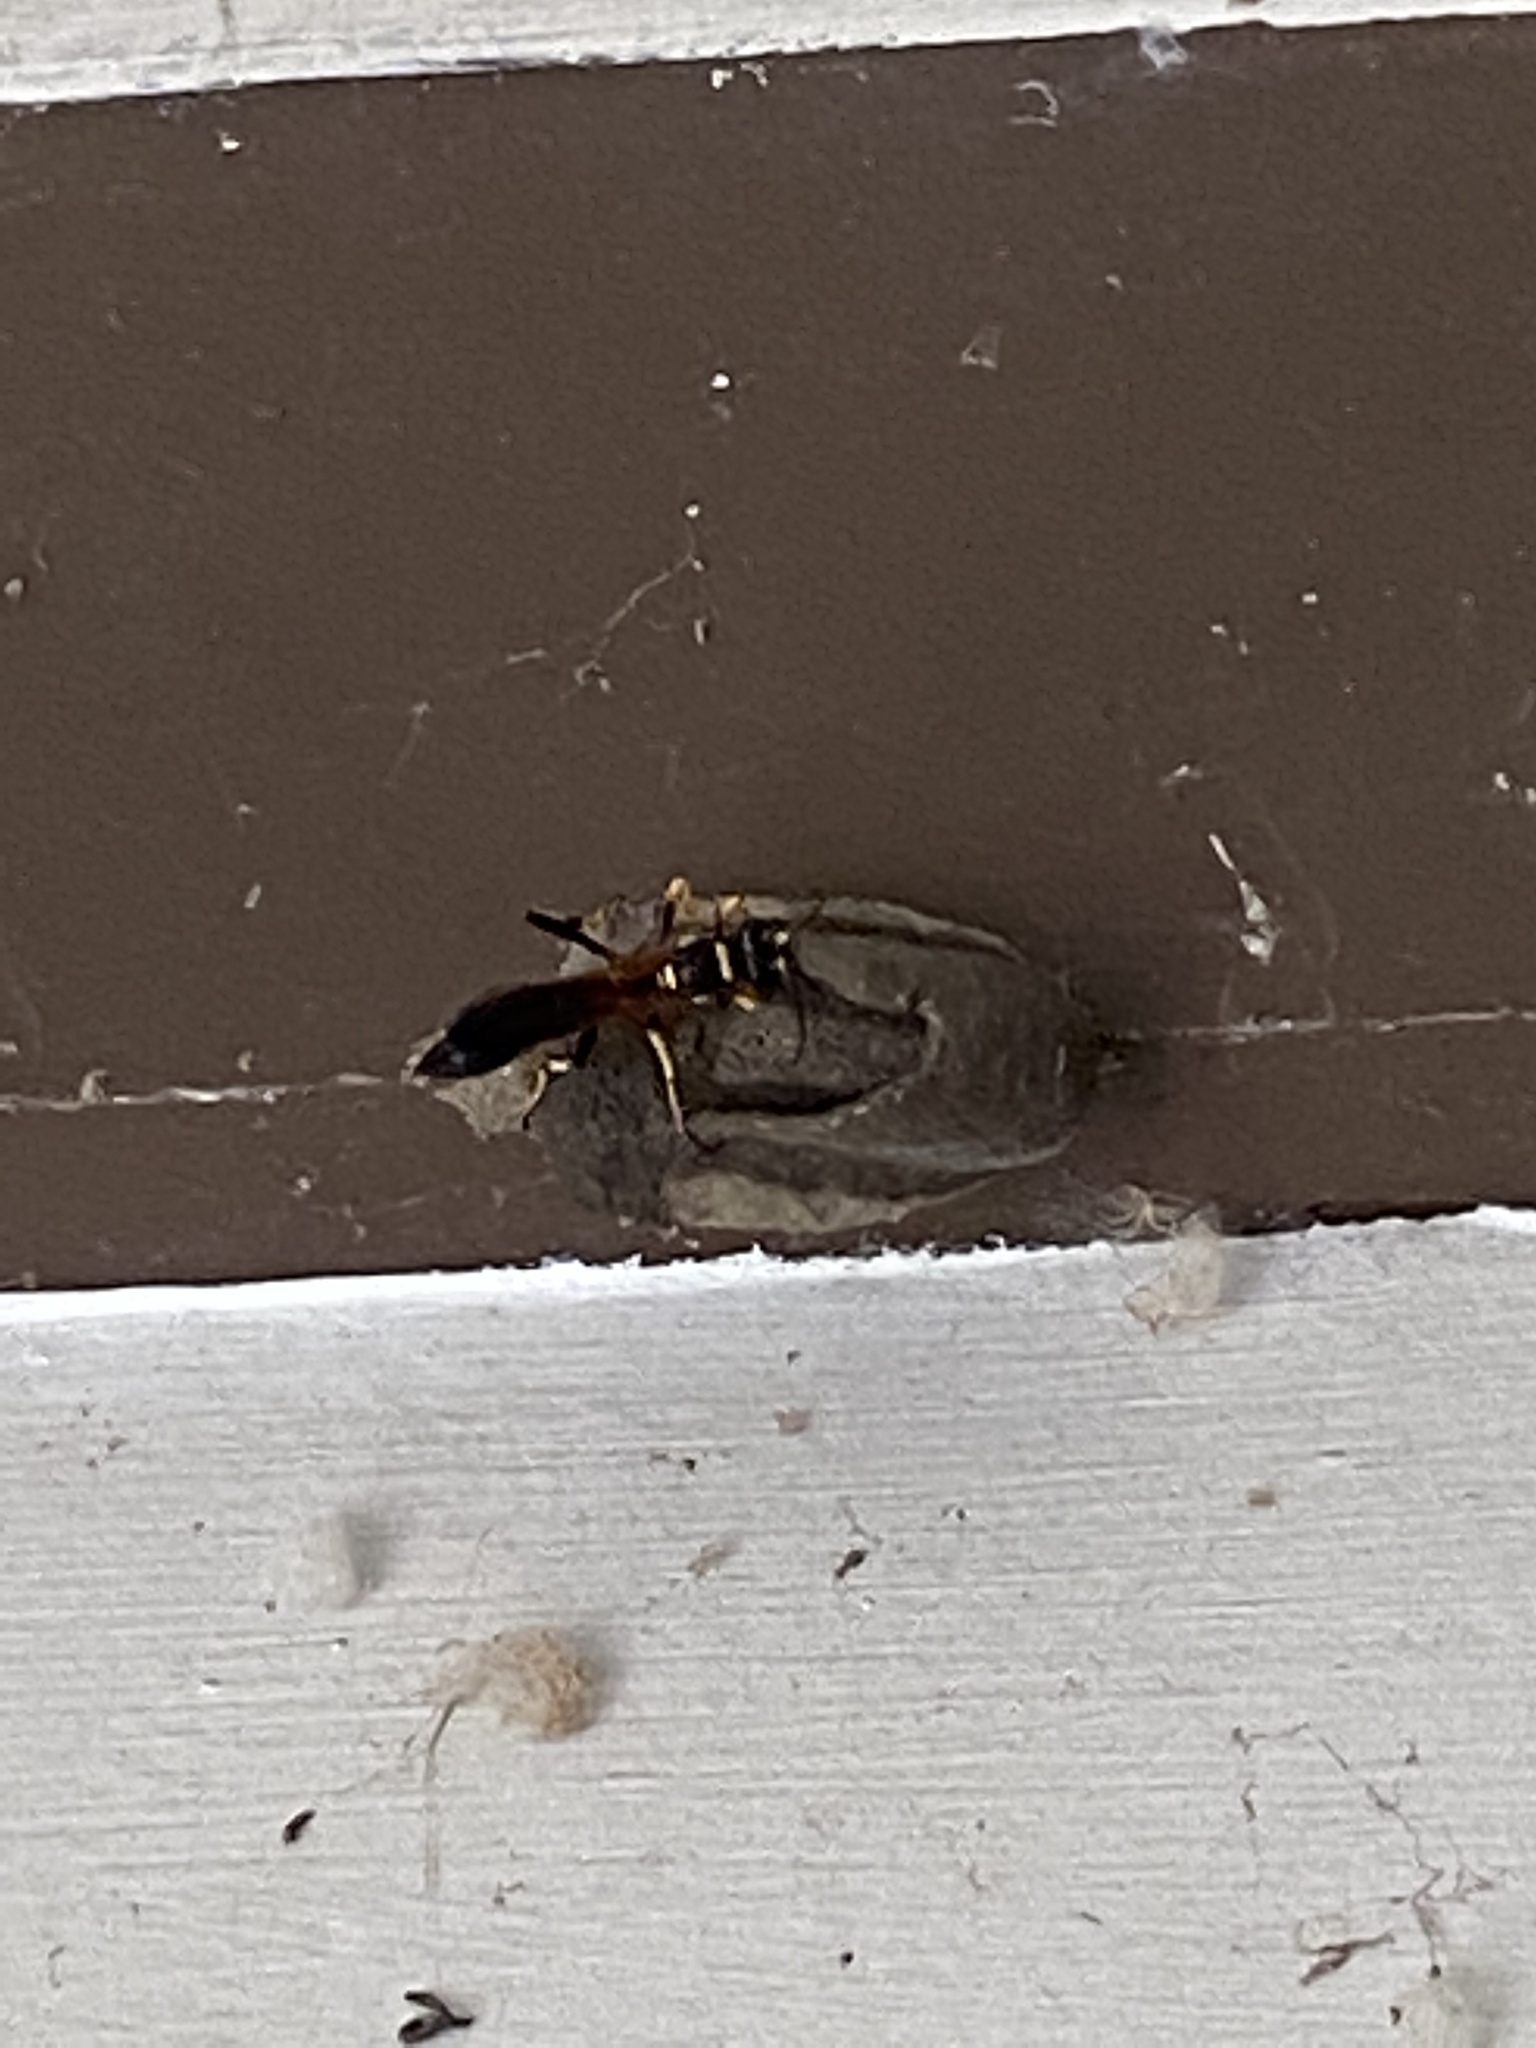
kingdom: Animalia
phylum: Arthropoda
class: Insecta
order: Hymenoptera
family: Sphecidae
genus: Sceliphron
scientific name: Sceliphron caementarium
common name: Mud dauber
